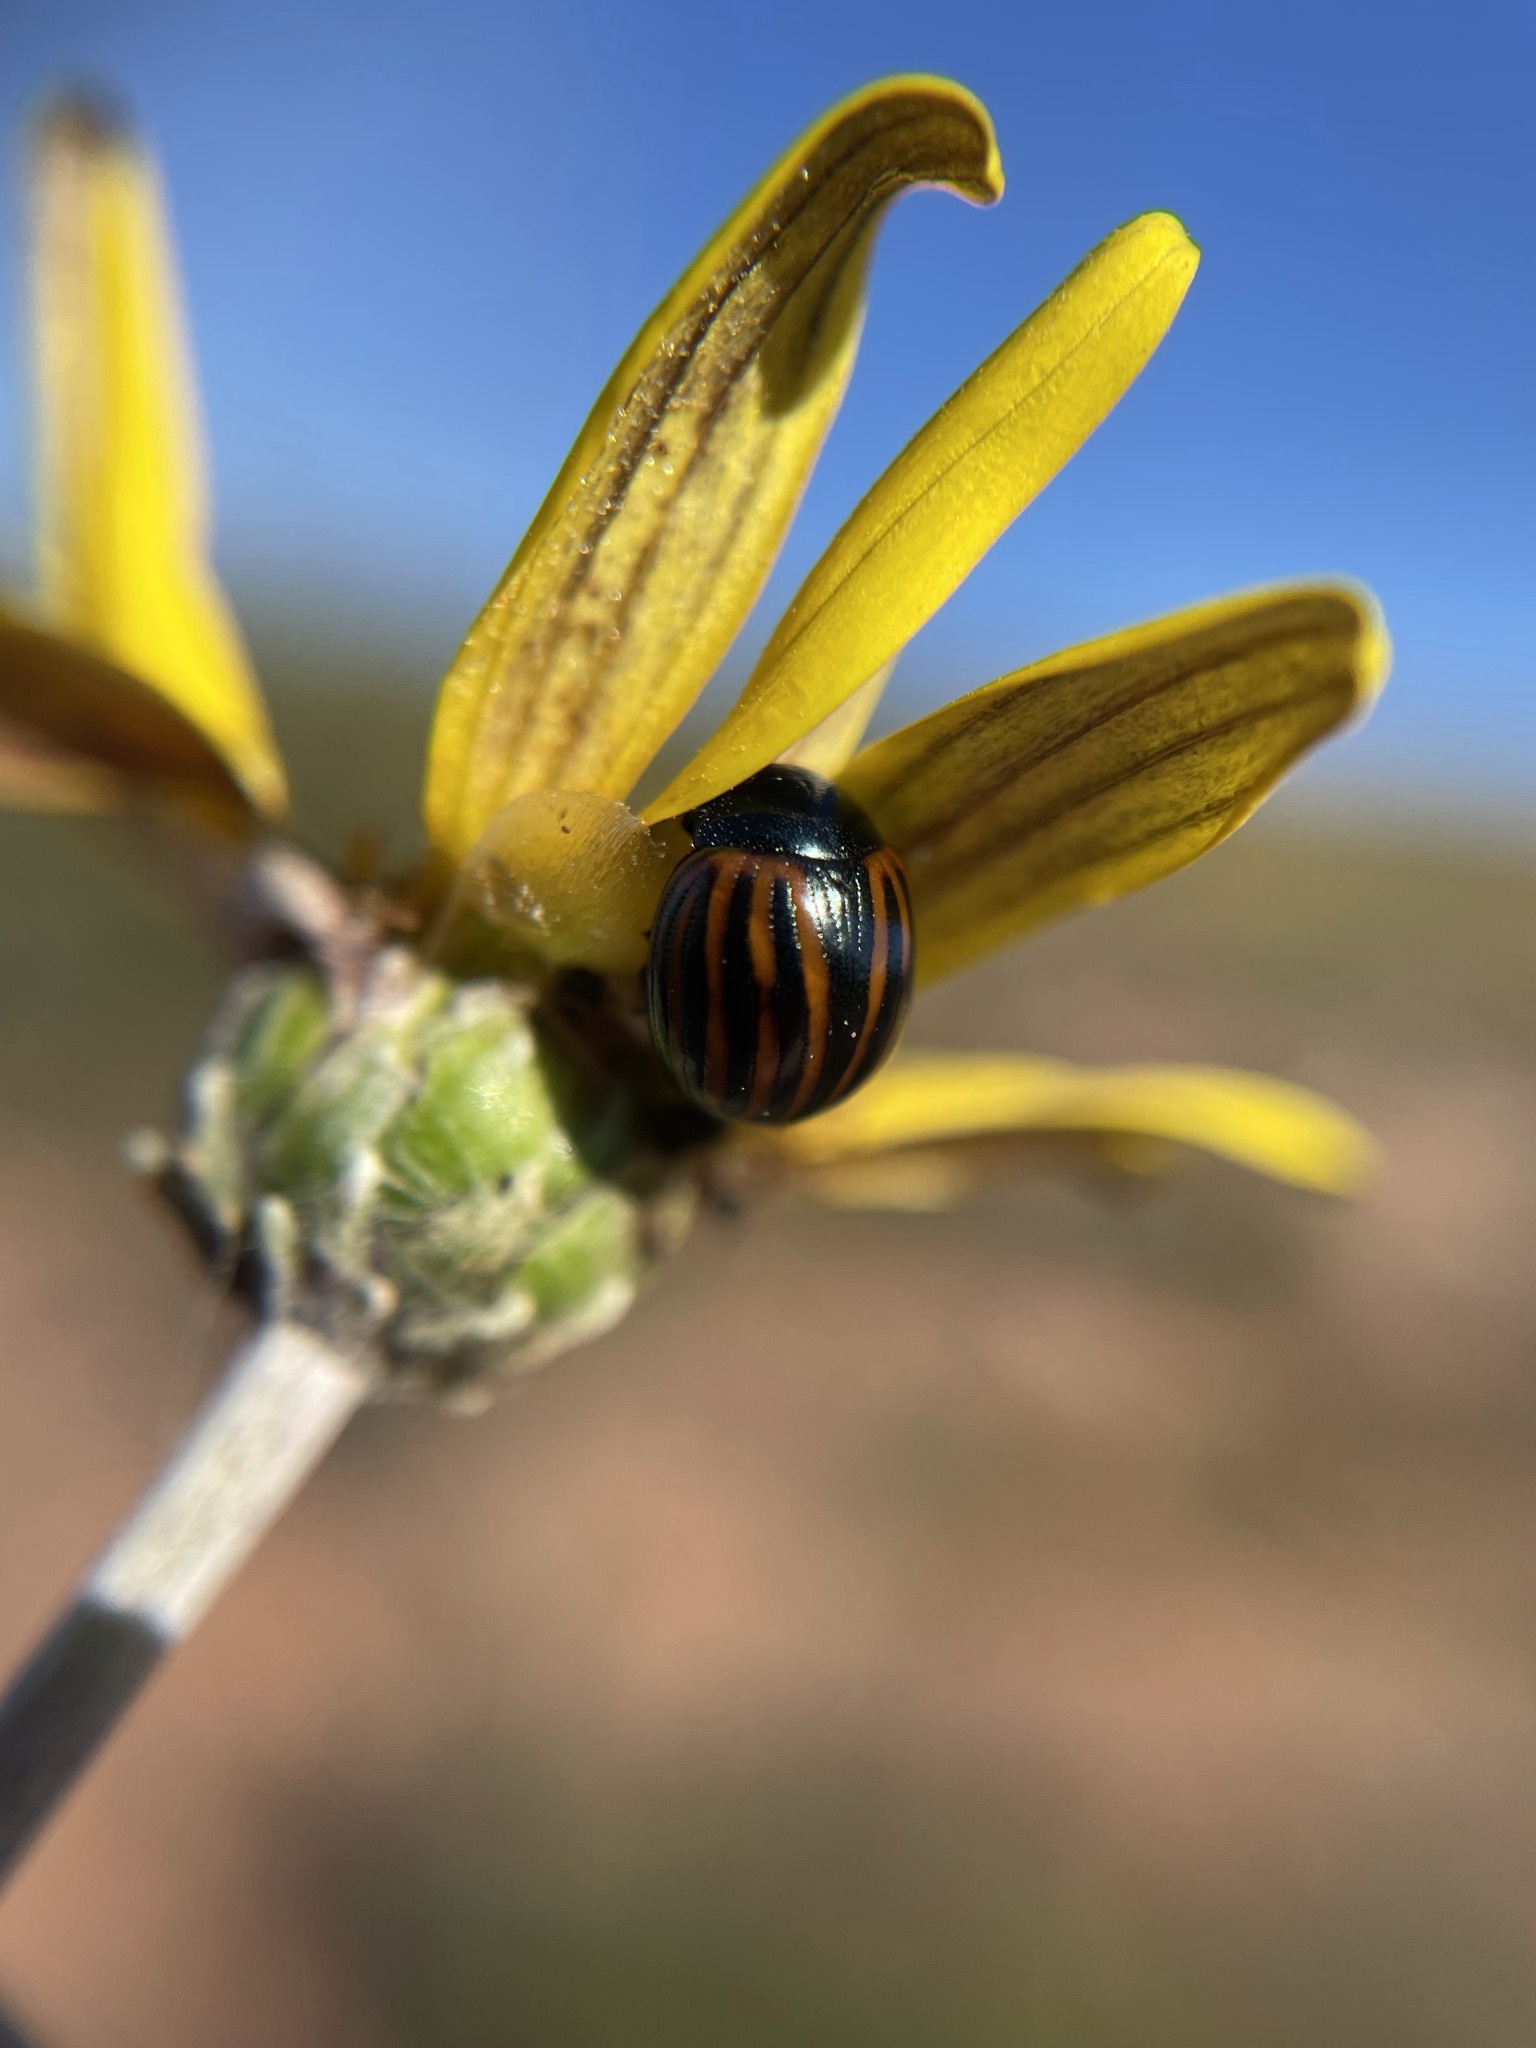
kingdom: Animalia
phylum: Arthropoda
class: Insecta
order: Coleoptera
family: Chrysomelidae
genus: Chrysolina
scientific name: Chrysolina
